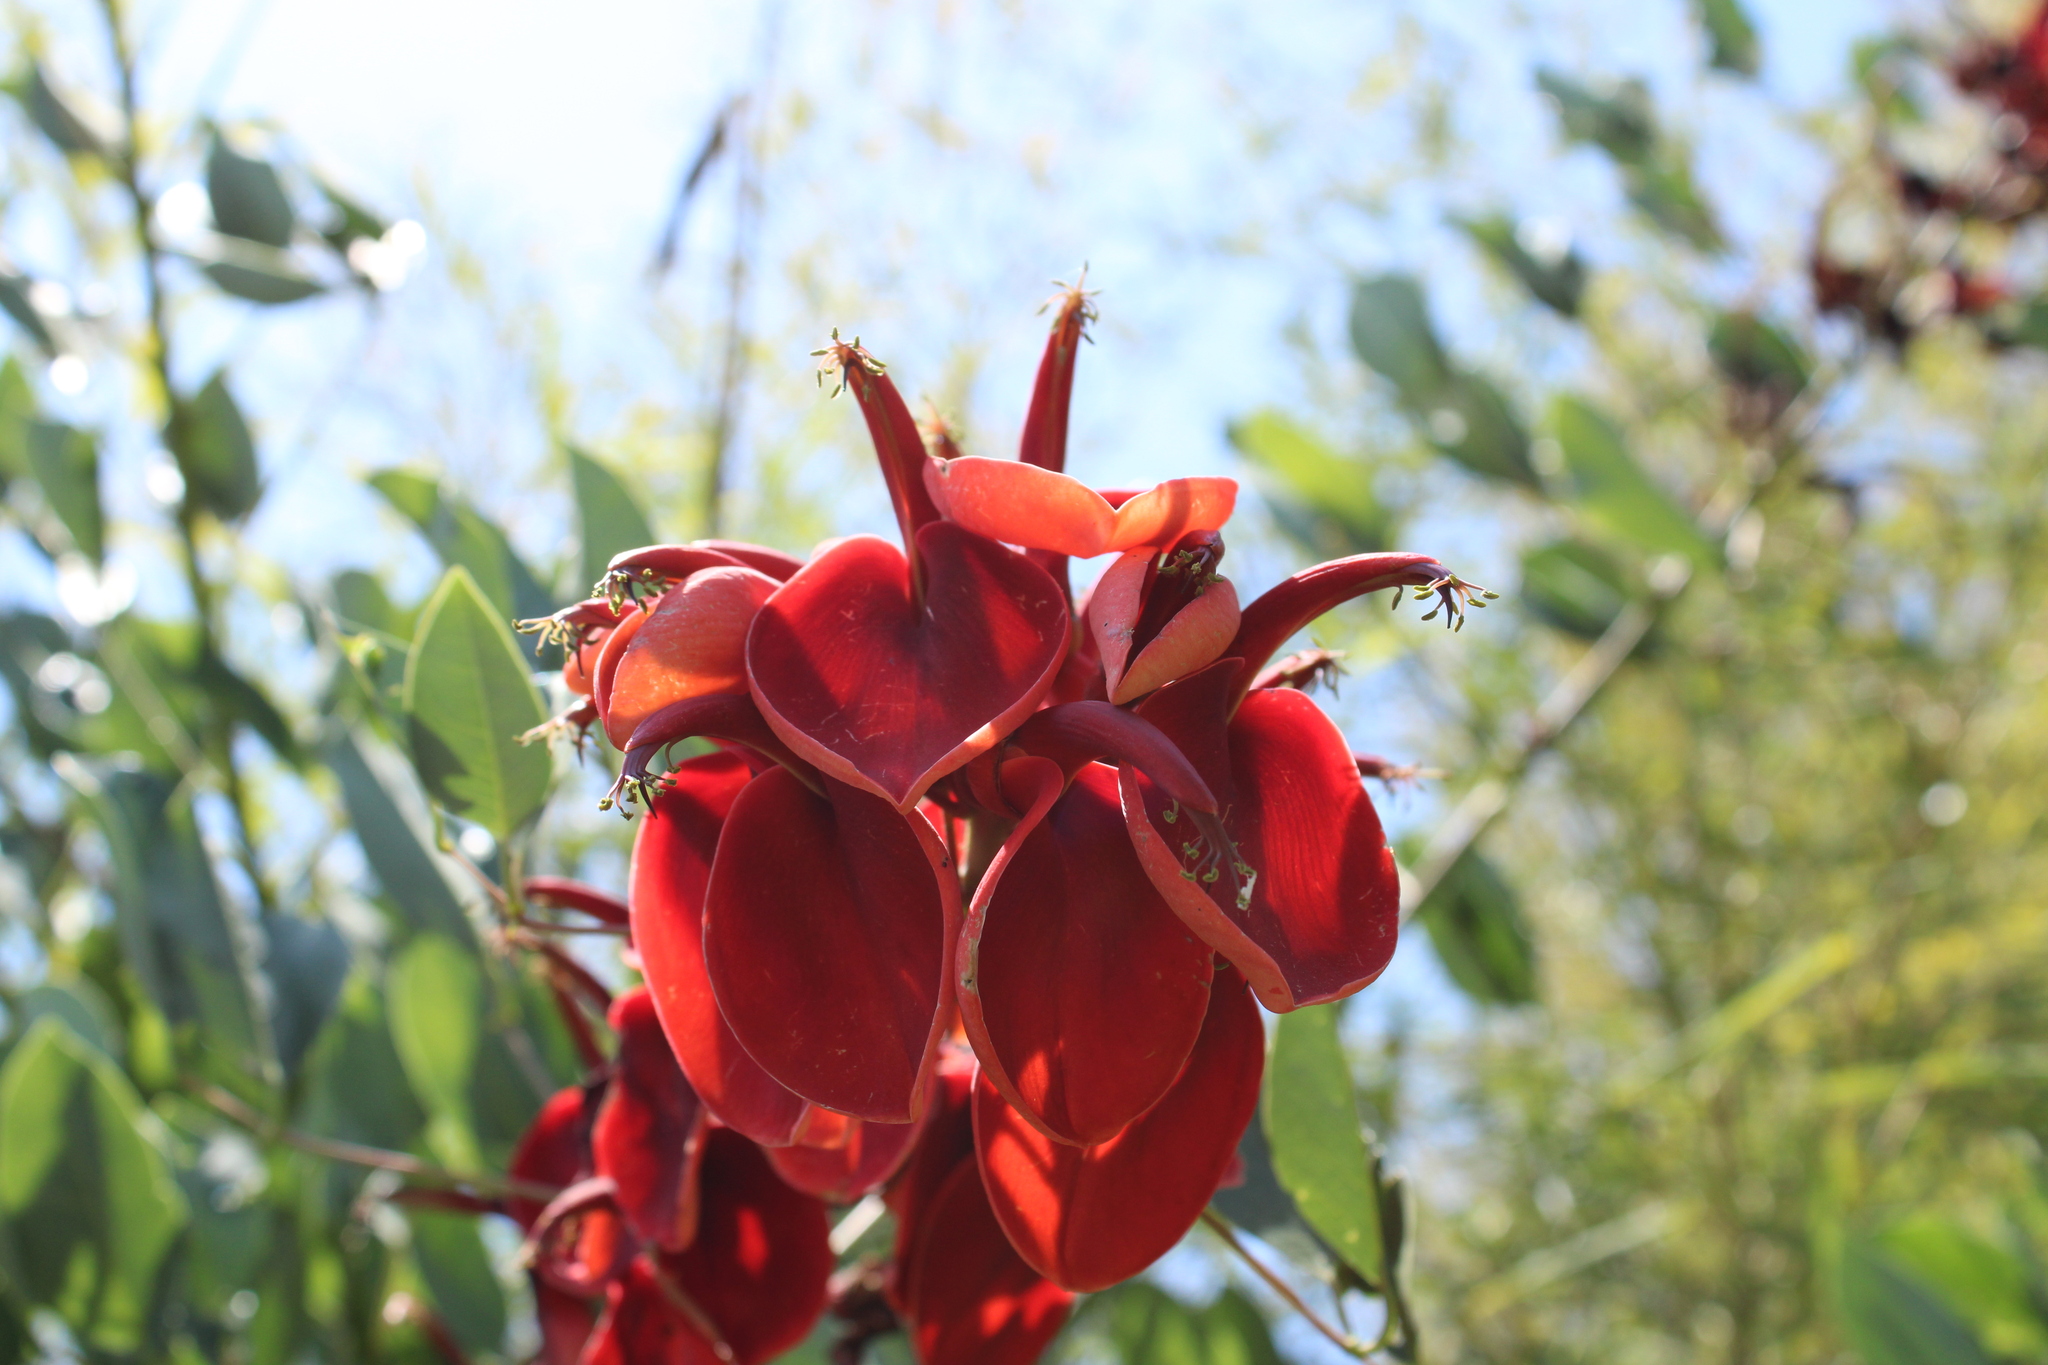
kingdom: Plantae
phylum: Tracheophyta
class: Magnoliopsida
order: Fabales
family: Fabaceae
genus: Erythrina
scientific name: Erythrina crista-galli
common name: Cockspur coral tree
